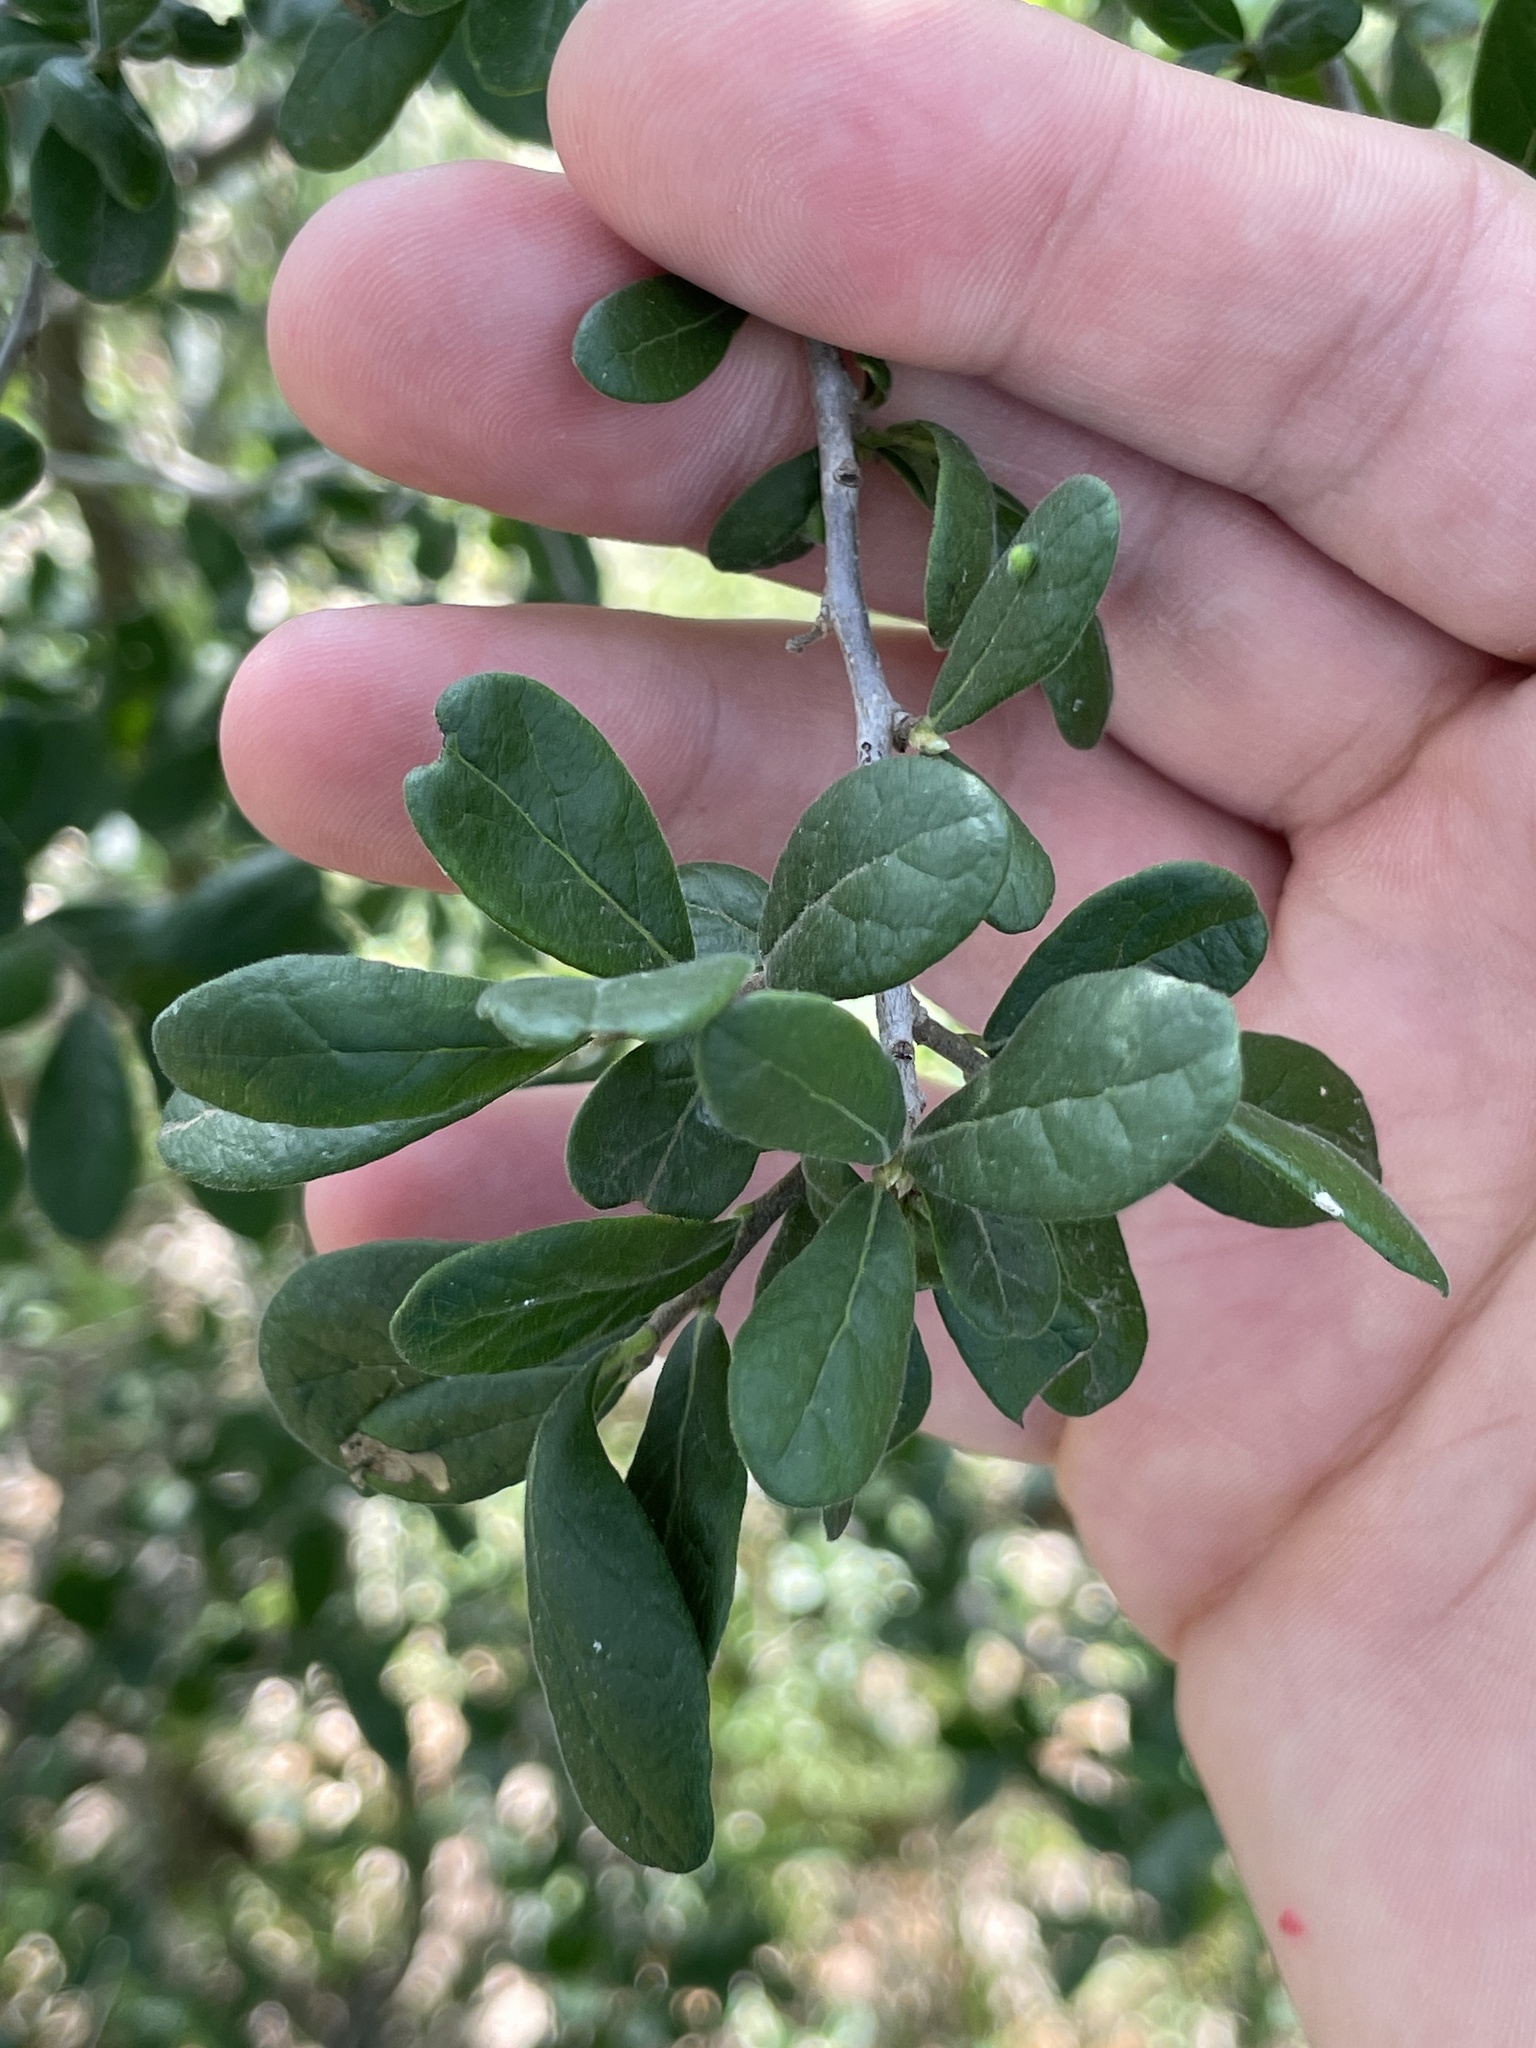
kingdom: Plantae
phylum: Tracheophyta
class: Magnoliopsida
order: Ericales
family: Ebenaceae
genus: Diospyros
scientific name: Diospyros texana
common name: Texas persimmon
